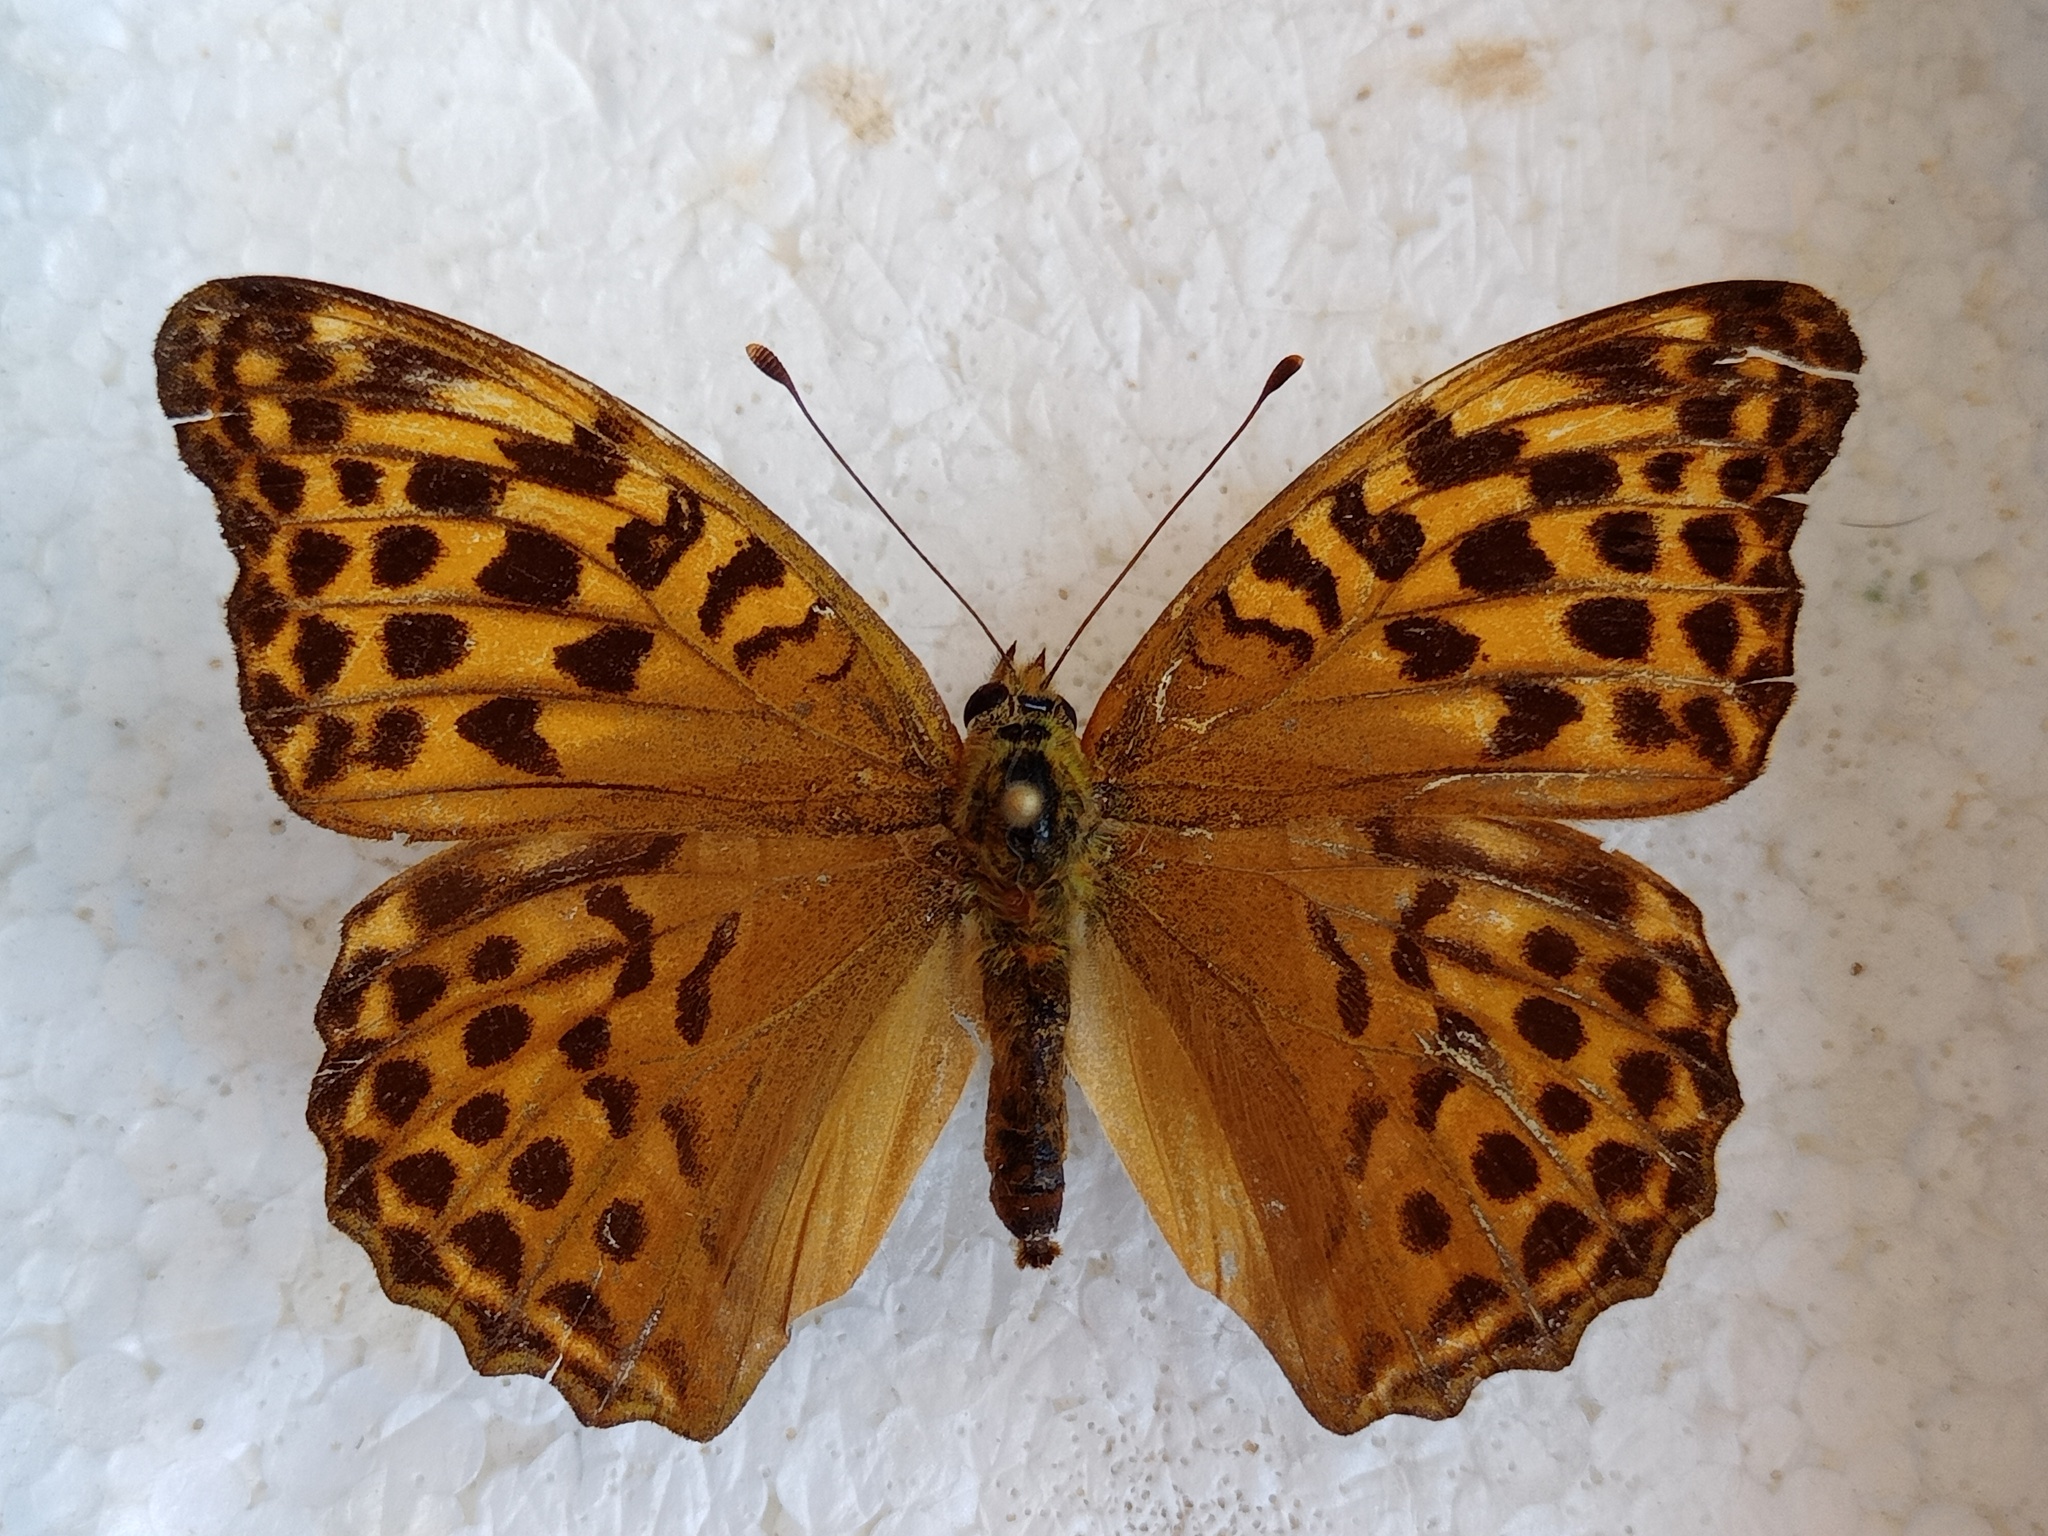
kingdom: Animalia
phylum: Arthropoda
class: Insecta
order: Lepidoptera
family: Nymphalidae
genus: Argynnis
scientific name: Argynnis paphia
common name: Silver-washed fritillary
